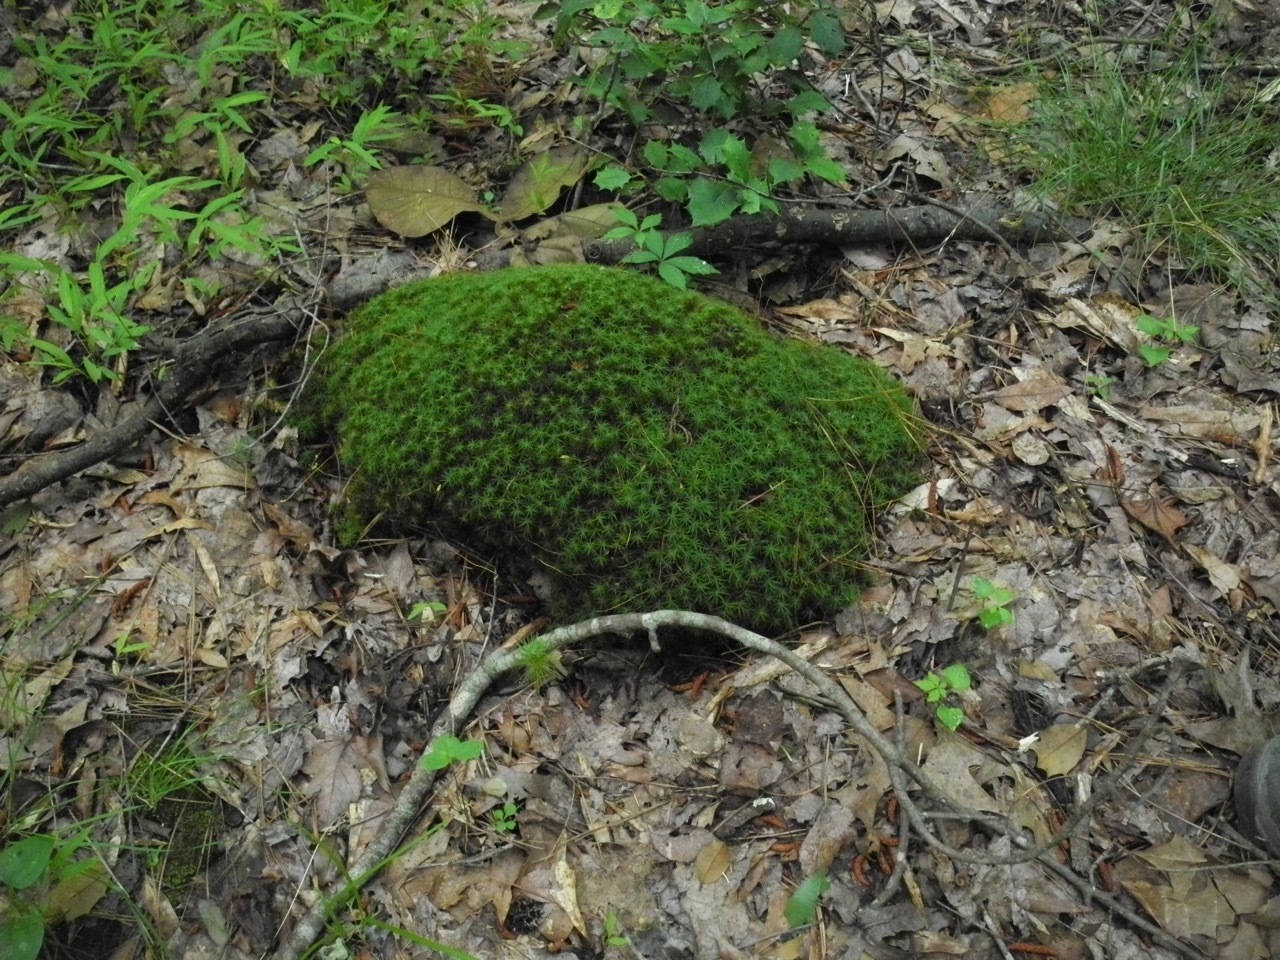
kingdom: Plantae
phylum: Bryophyta
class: Polytrichopsida
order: Polytrichales
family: Polytrichaceae
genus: Polytrichum
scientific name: Polytrichum commune
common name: Common haircap
